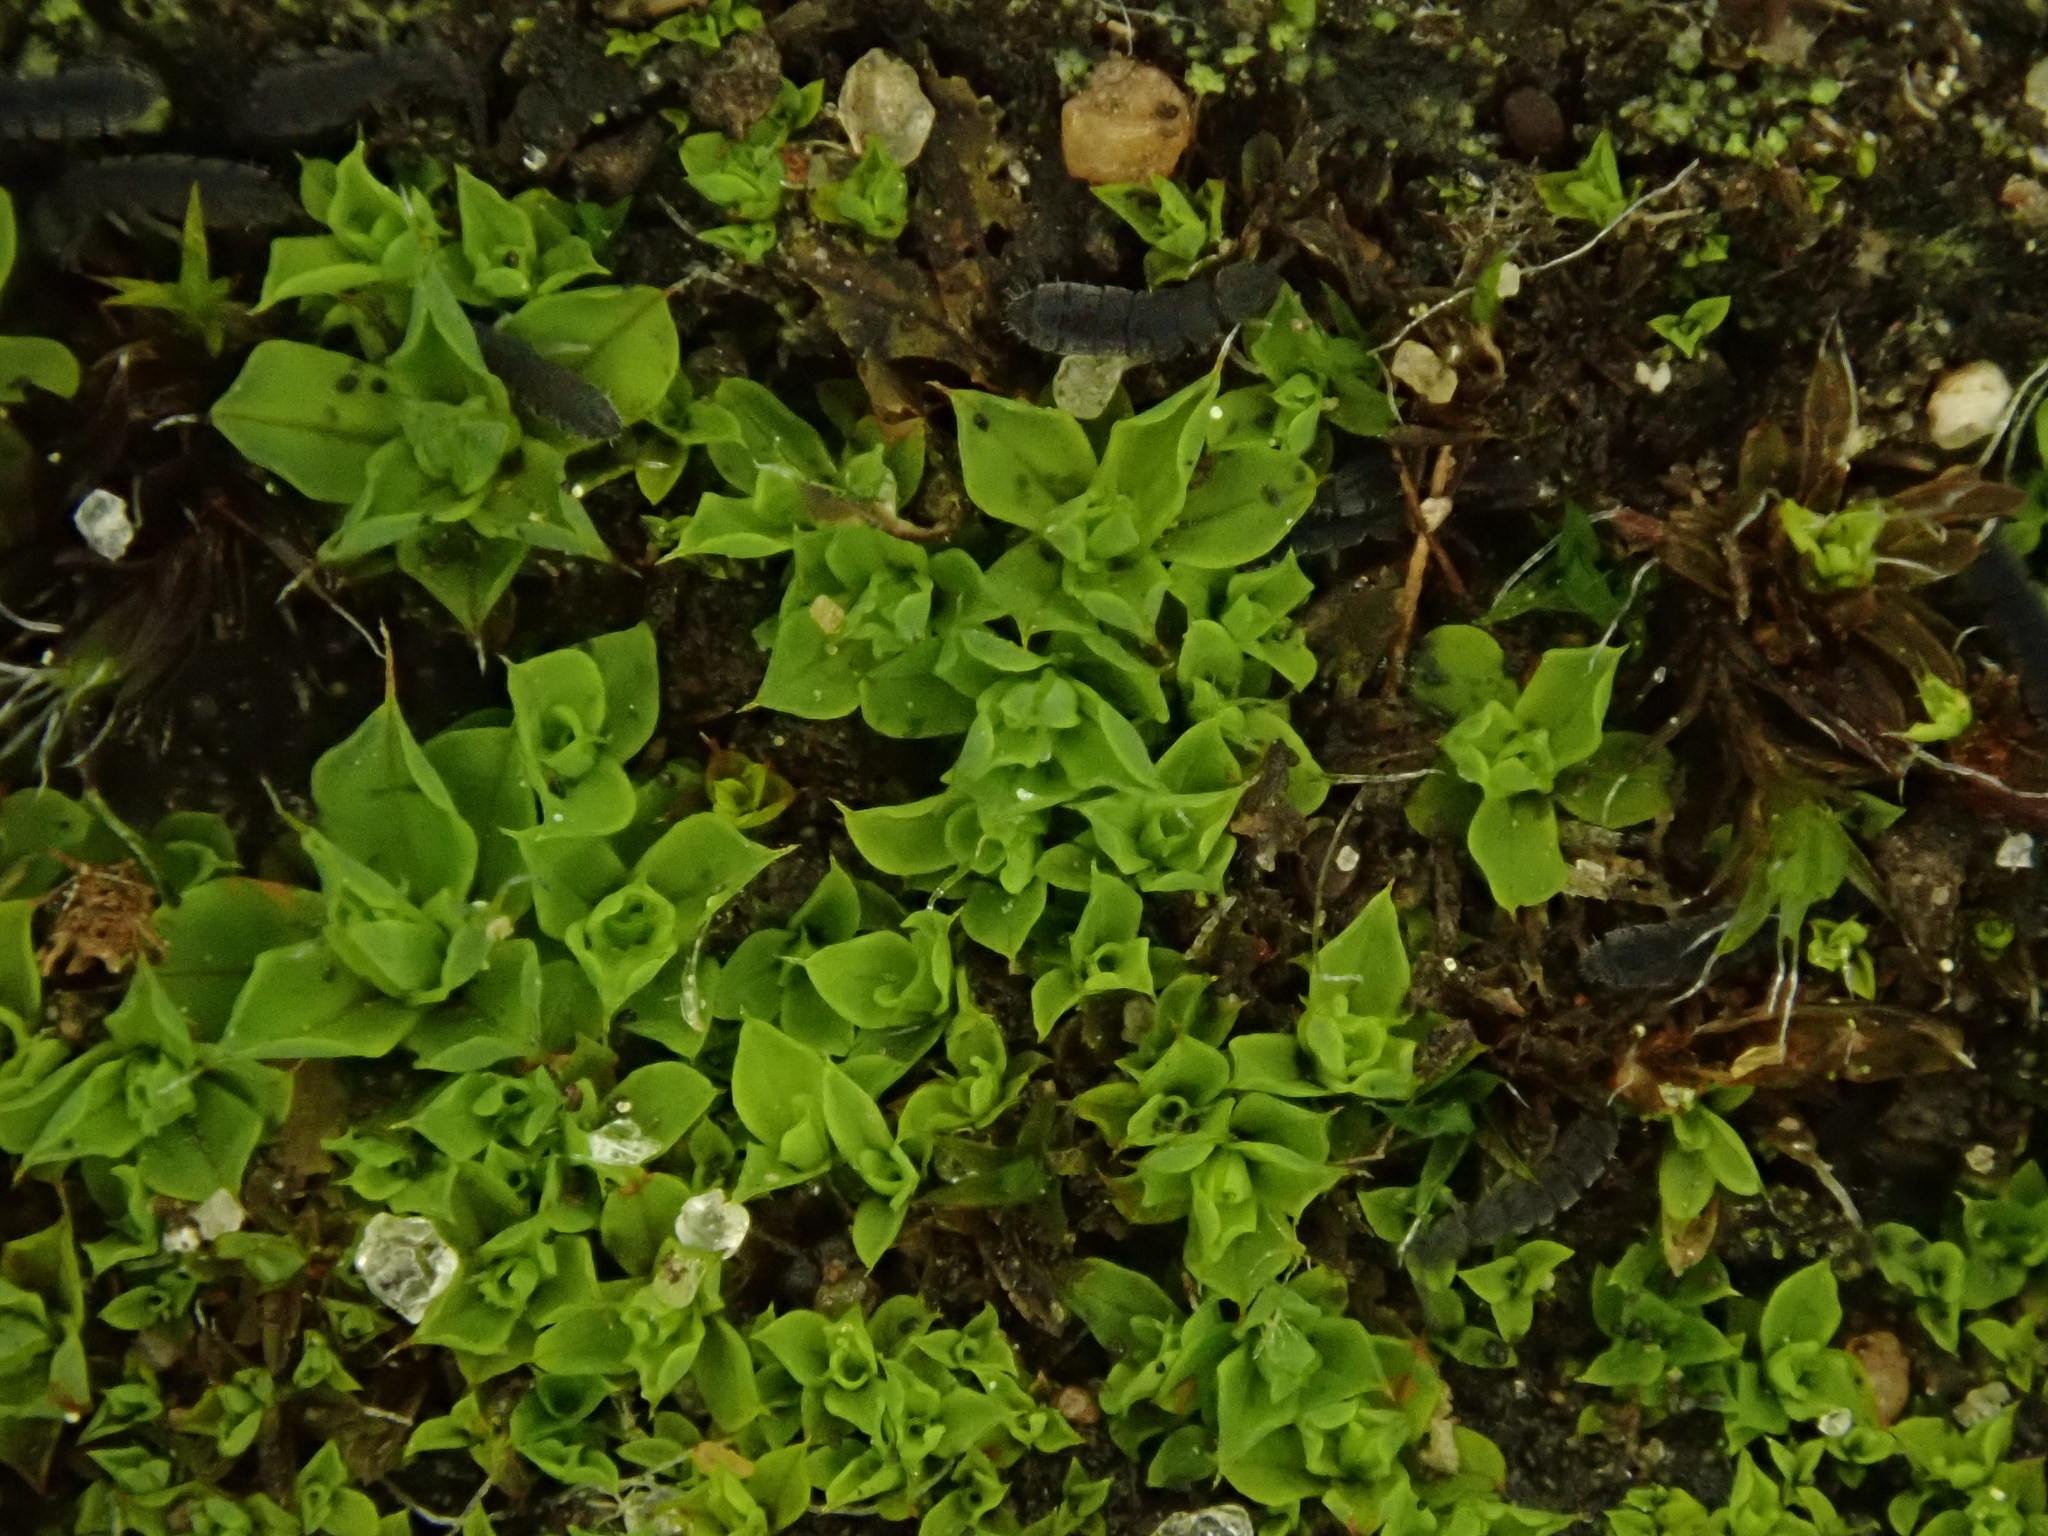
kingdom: Plantae
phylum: Bryophyta
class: Bryopsida
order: Pottiales
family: Pottiaceae
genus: Syntrichia
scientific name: Syntrichia montana
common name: Intermediate screw-moss
